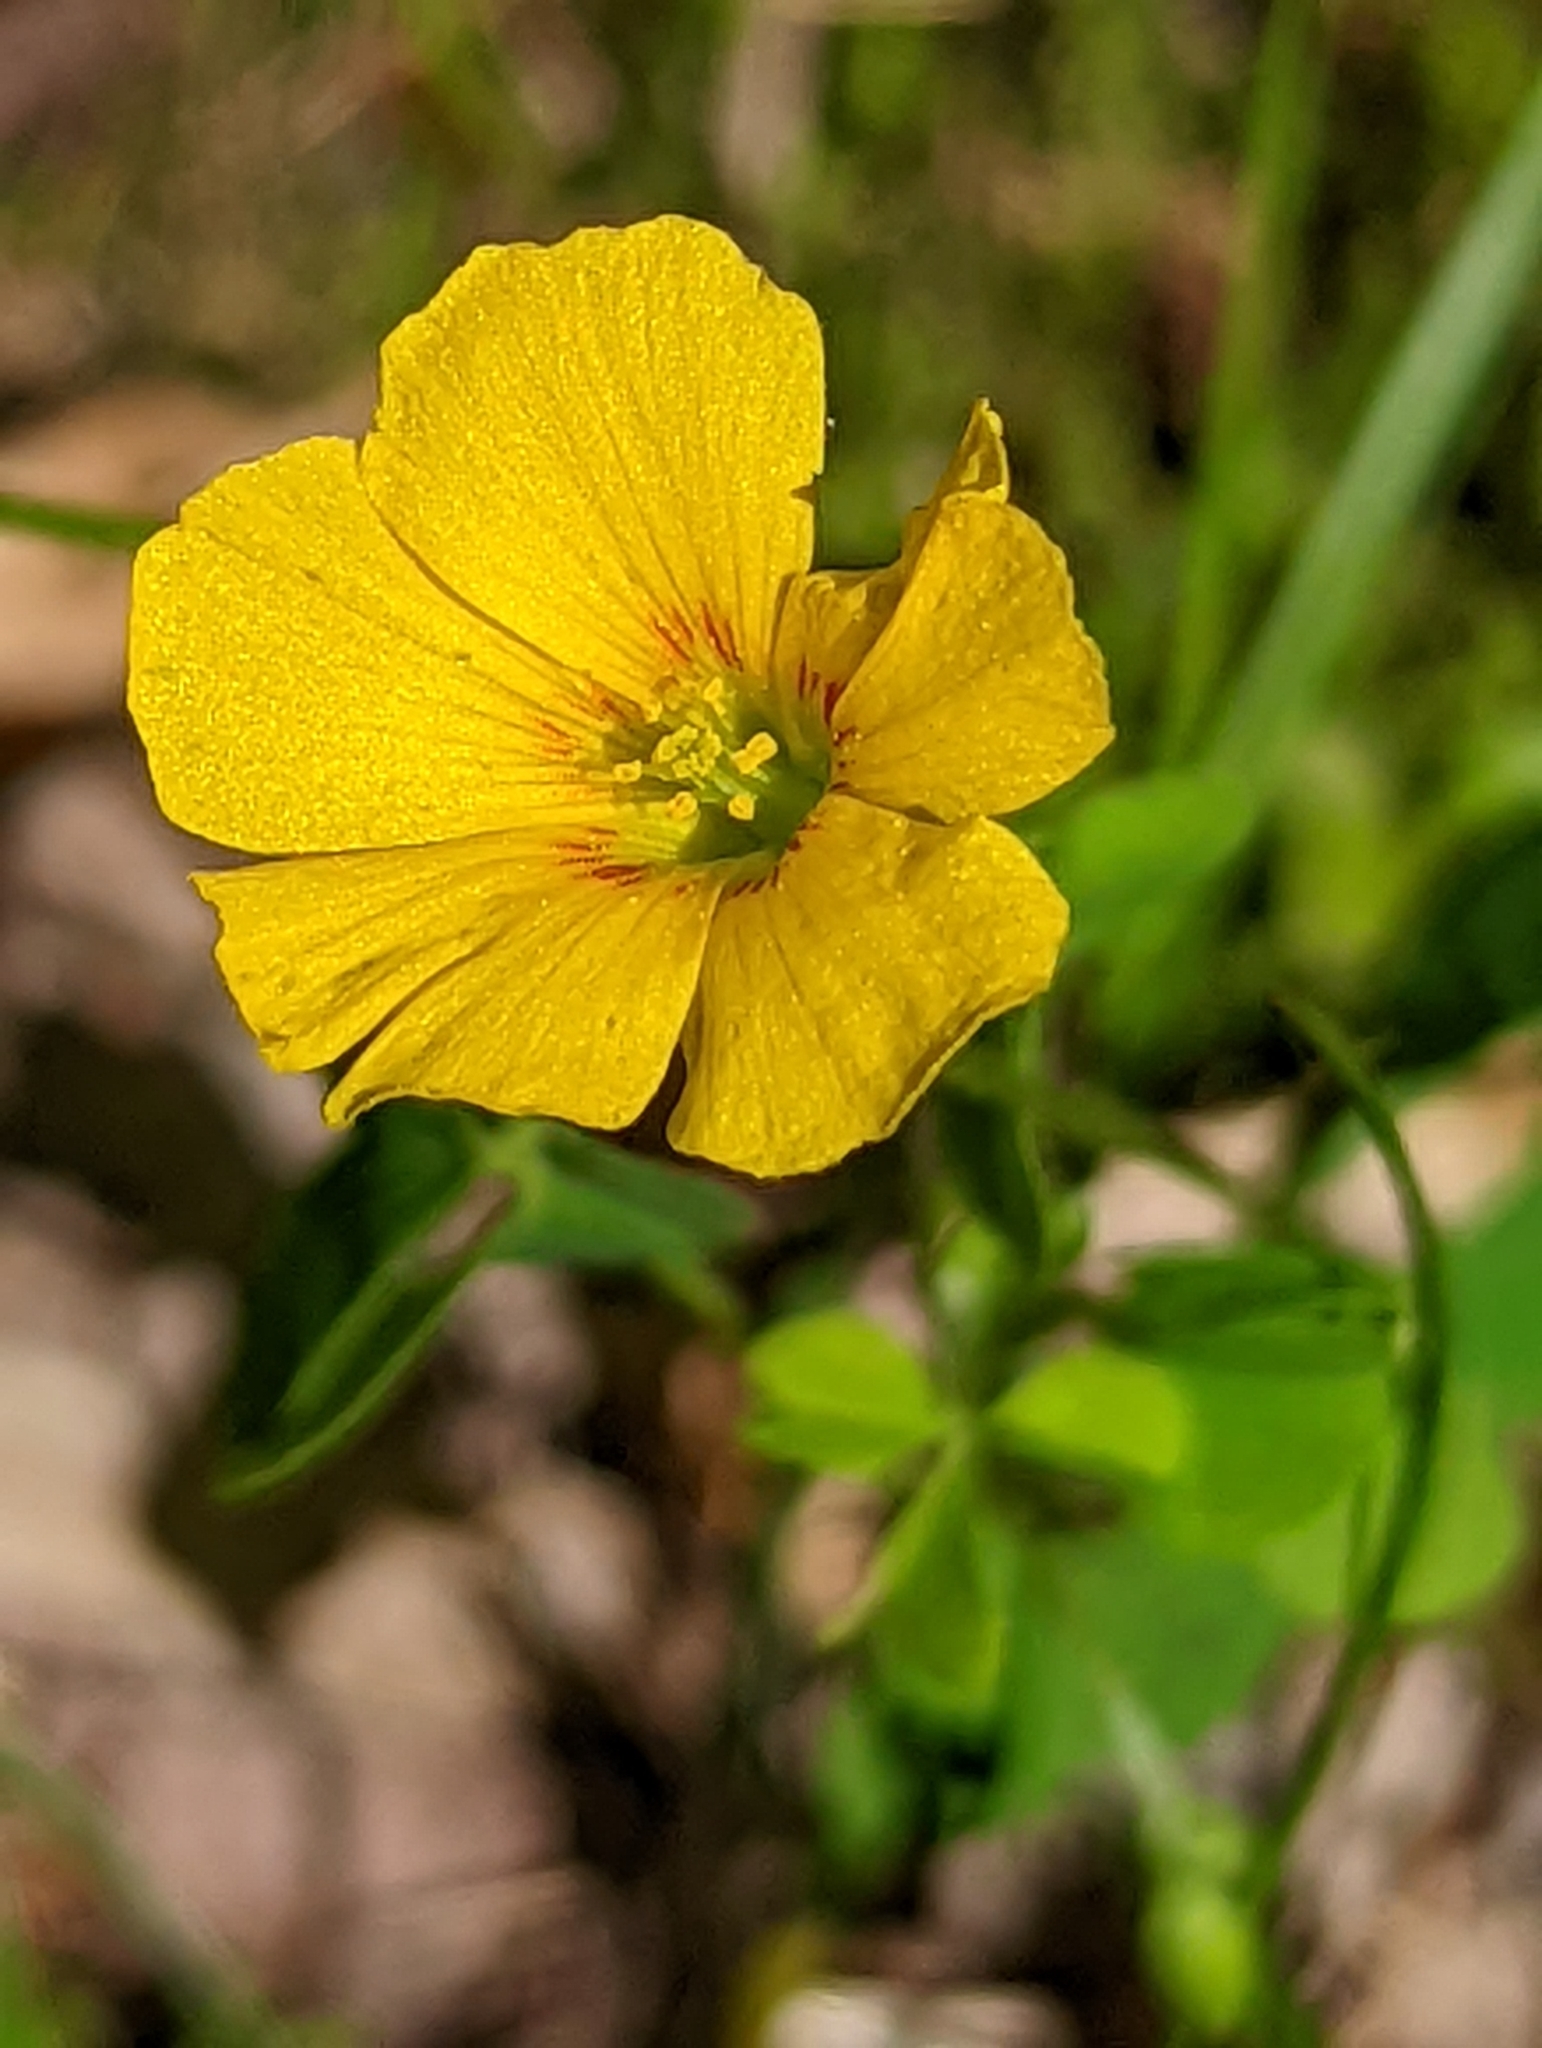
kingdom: Plantae
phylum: Tracheophyta
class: Magnoliopsida
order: Oxalidales
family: Oxalidaceae
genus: Oxalis
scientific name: Oxalis dillenii
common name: Sussex yellow-sorrel
